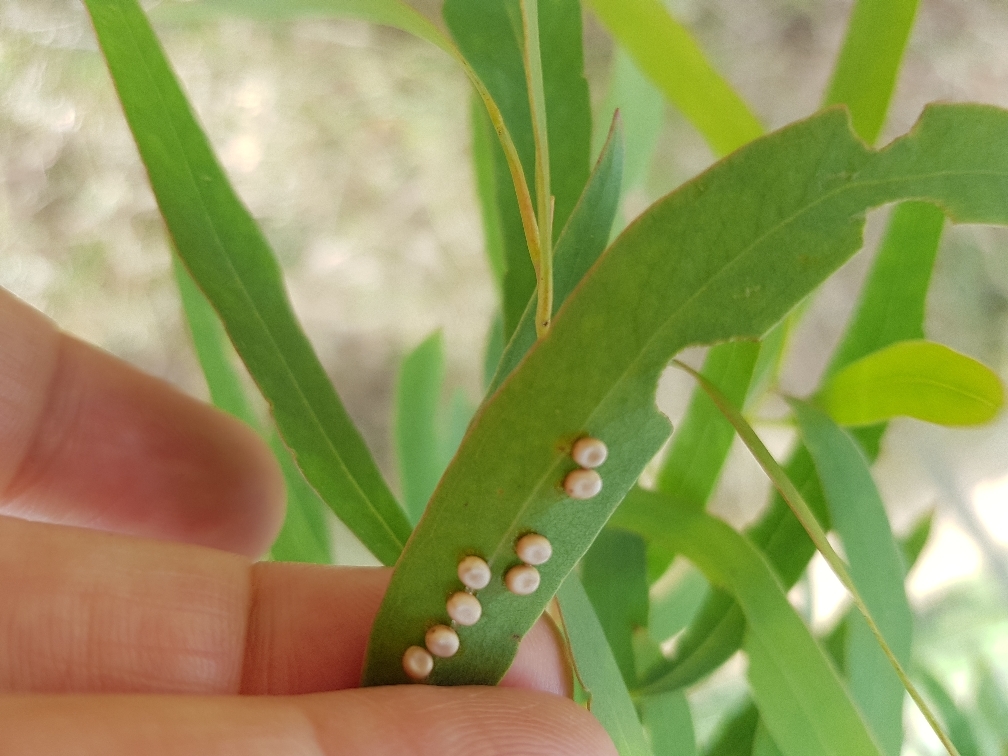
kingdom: Animalia
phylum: Arthropoda
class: Insecta
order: Lepidoptera
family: Saturniidae
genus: Opodiphthera
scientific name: Opodiphthera
